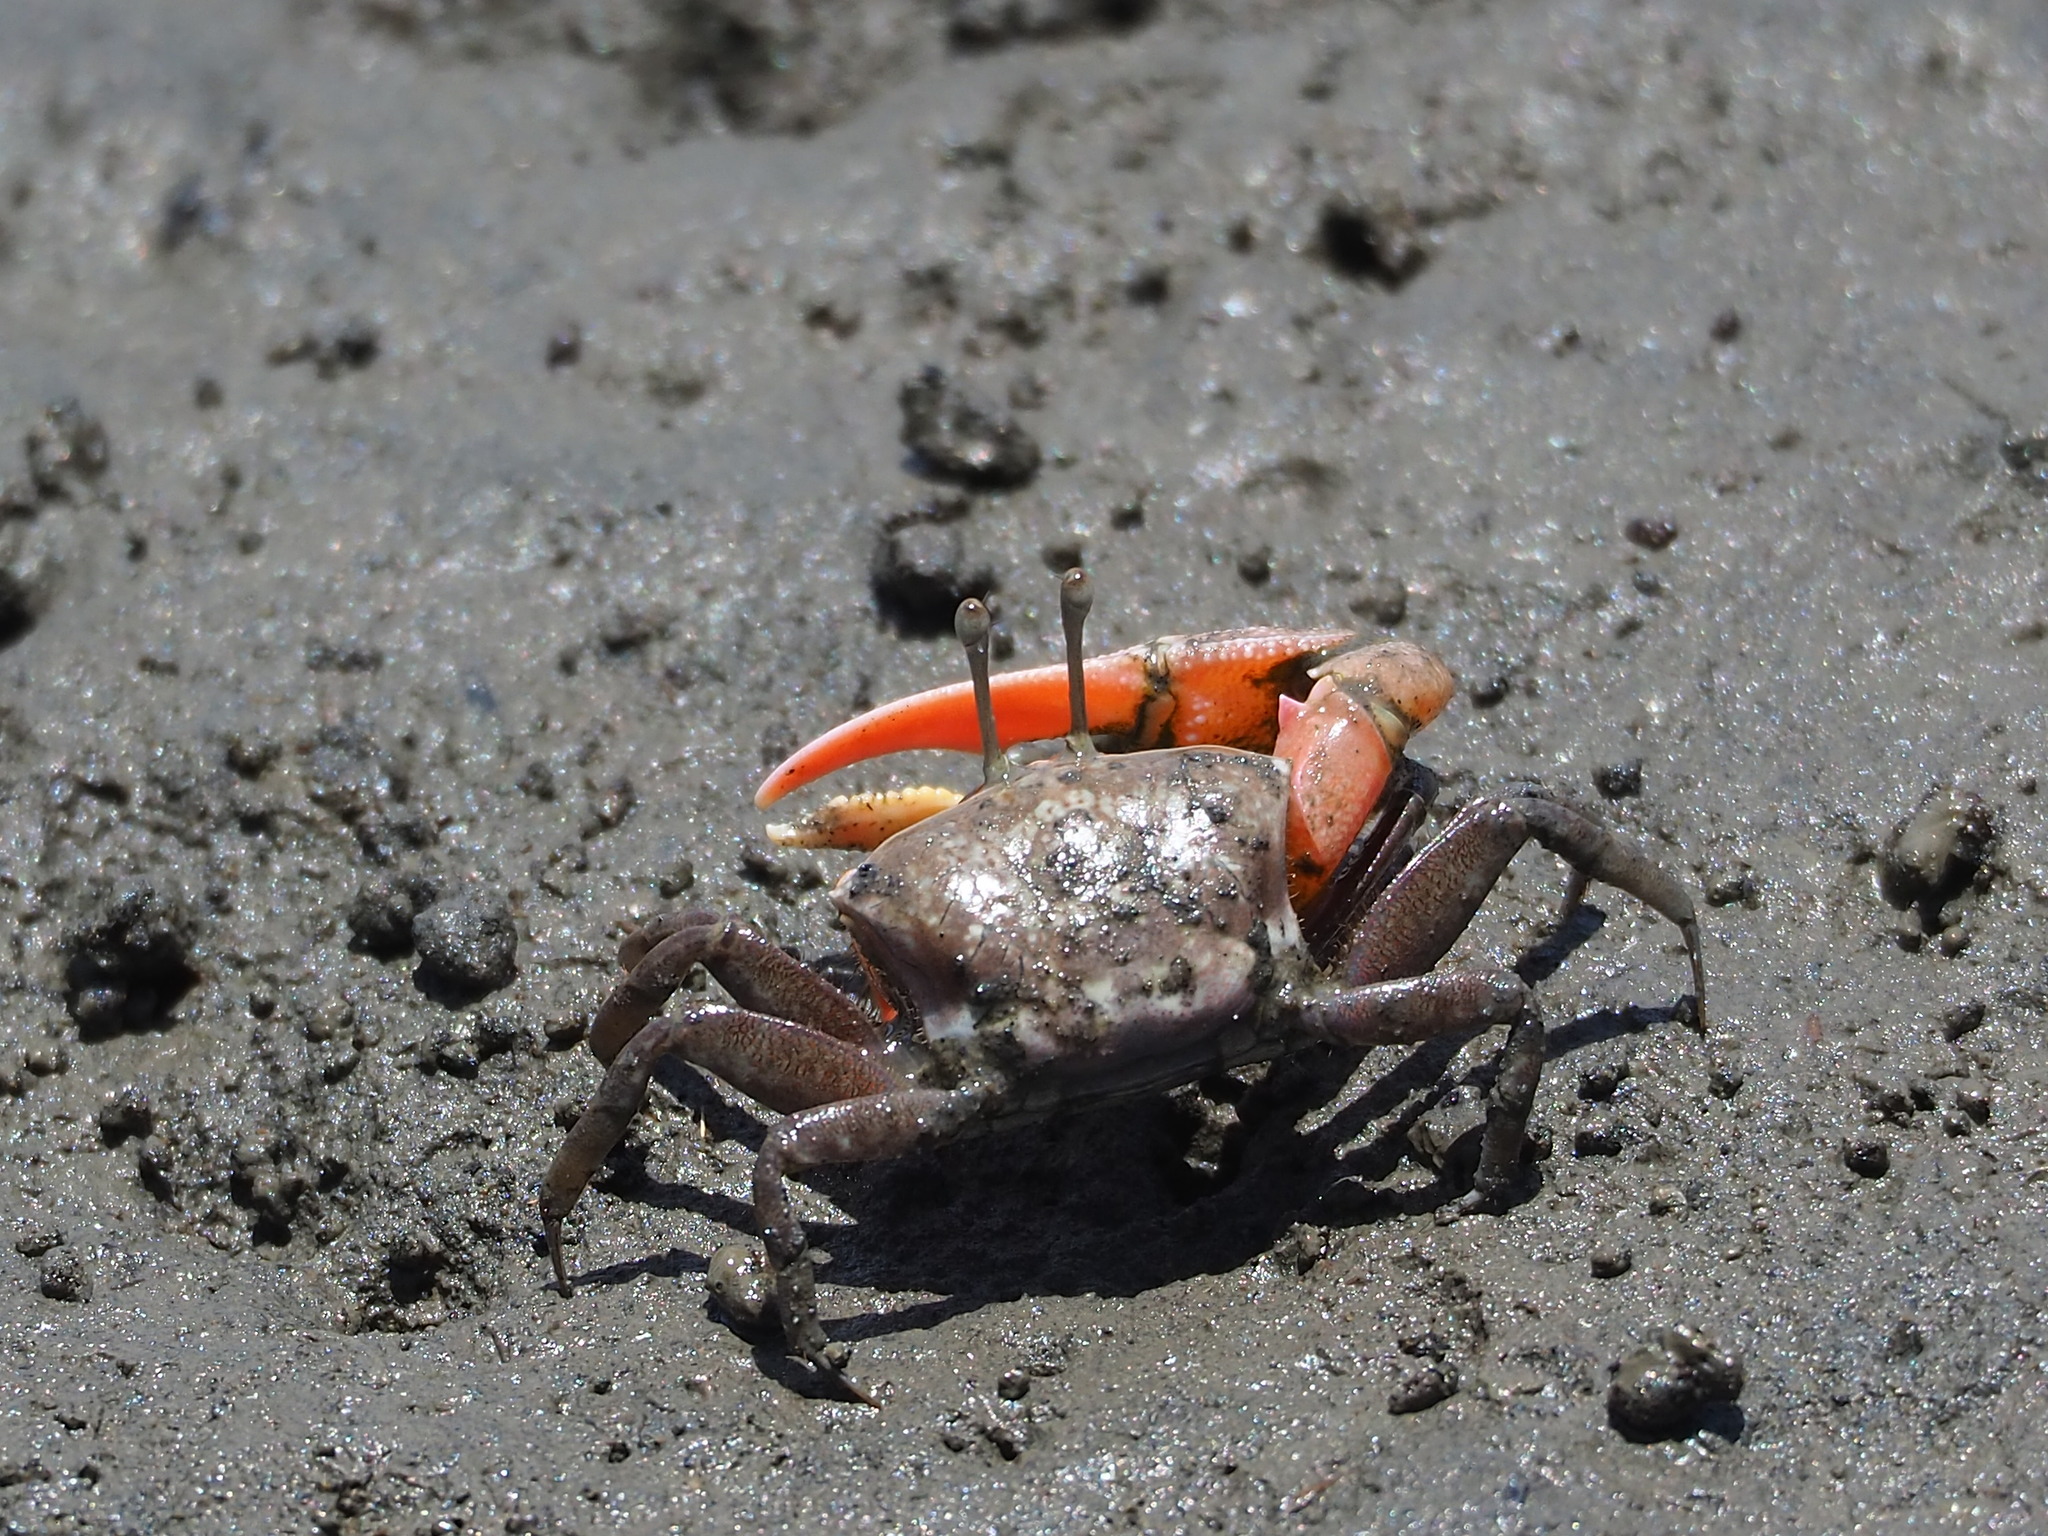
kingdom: Animalia
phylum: Arthropoda
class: Malacostraca
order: Decapoda
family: Ocypodidae
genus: Gelasimus
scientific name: Gelasimus borealis
